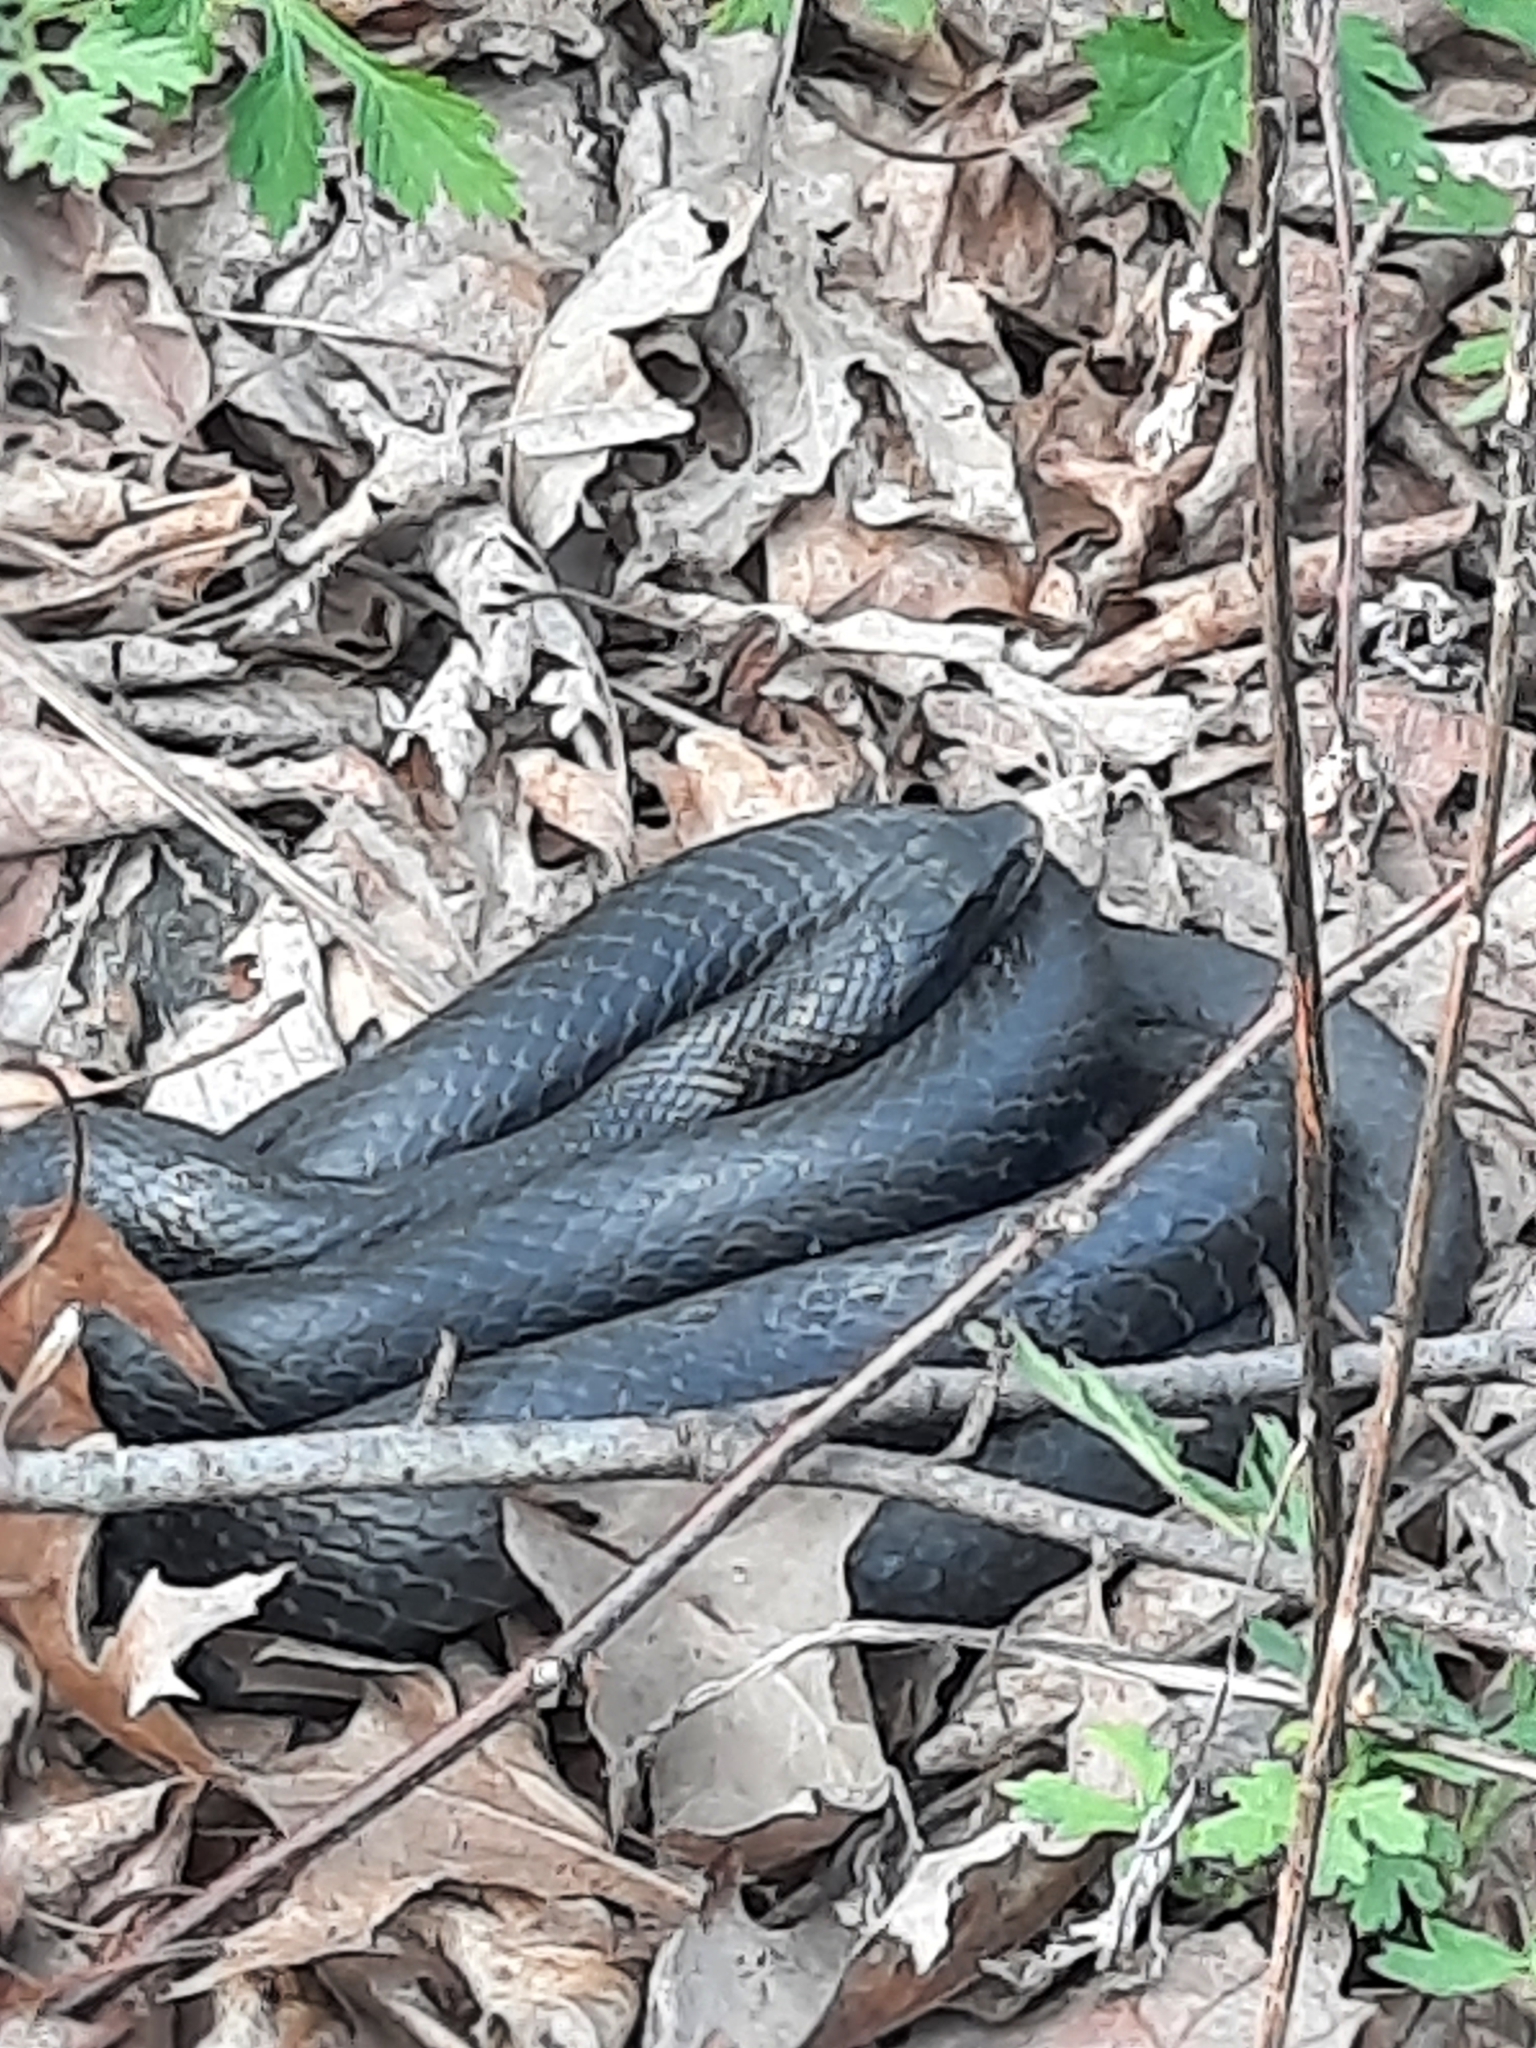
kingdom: Animalia
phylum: Chordata
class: Squamata
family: Colubridae
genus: Coluber
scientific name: Coluber constrictor
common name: Eastern racer
